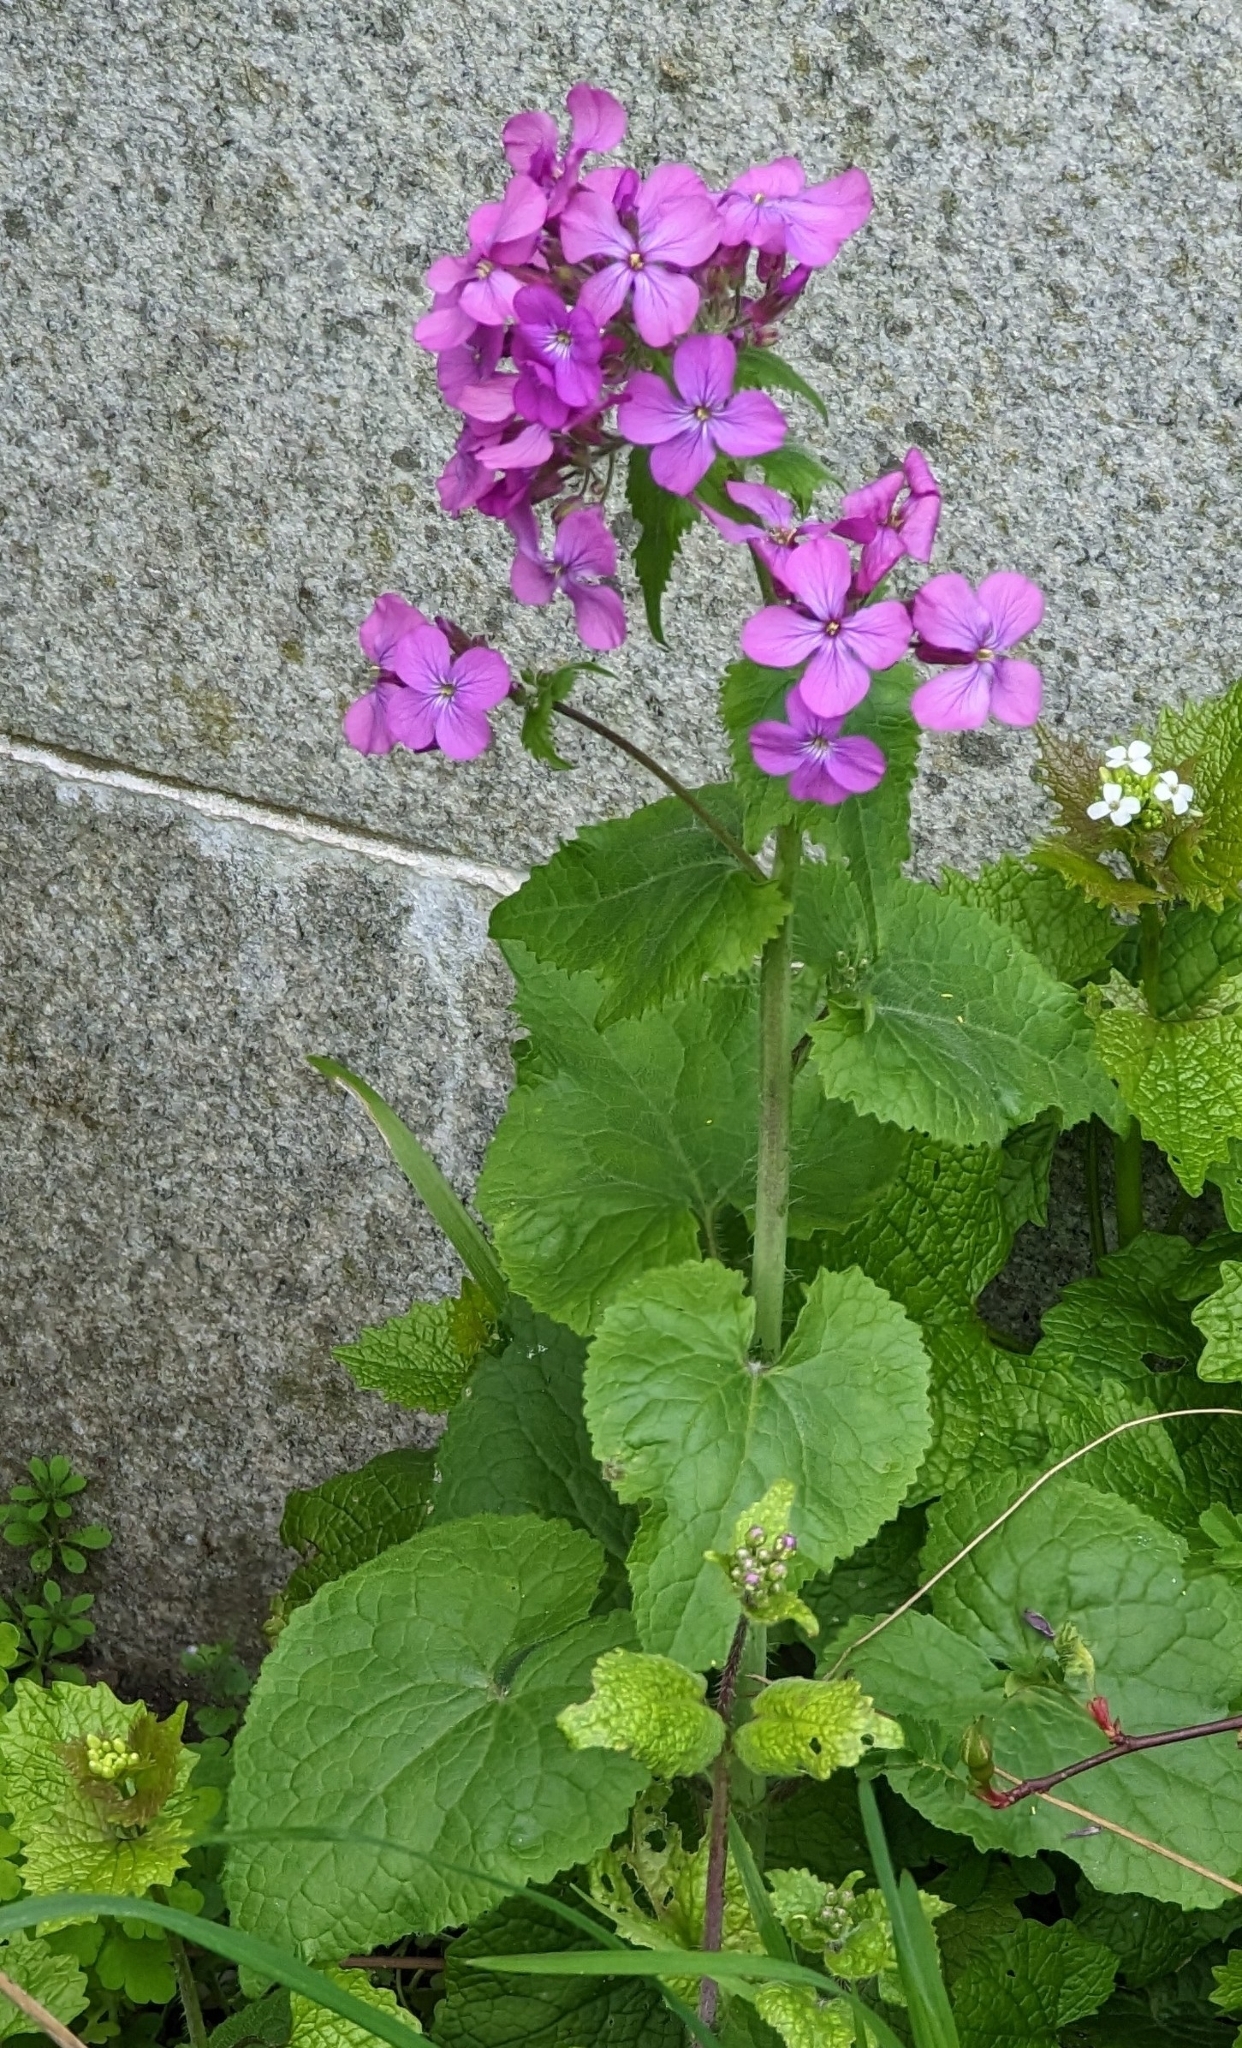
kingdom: Plantae
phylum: Tracheophyta
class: Magnoliopsida
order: Brassicales
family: Brassicaceae
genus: Lunaria
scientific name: Lunaria annua
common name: Honesty
